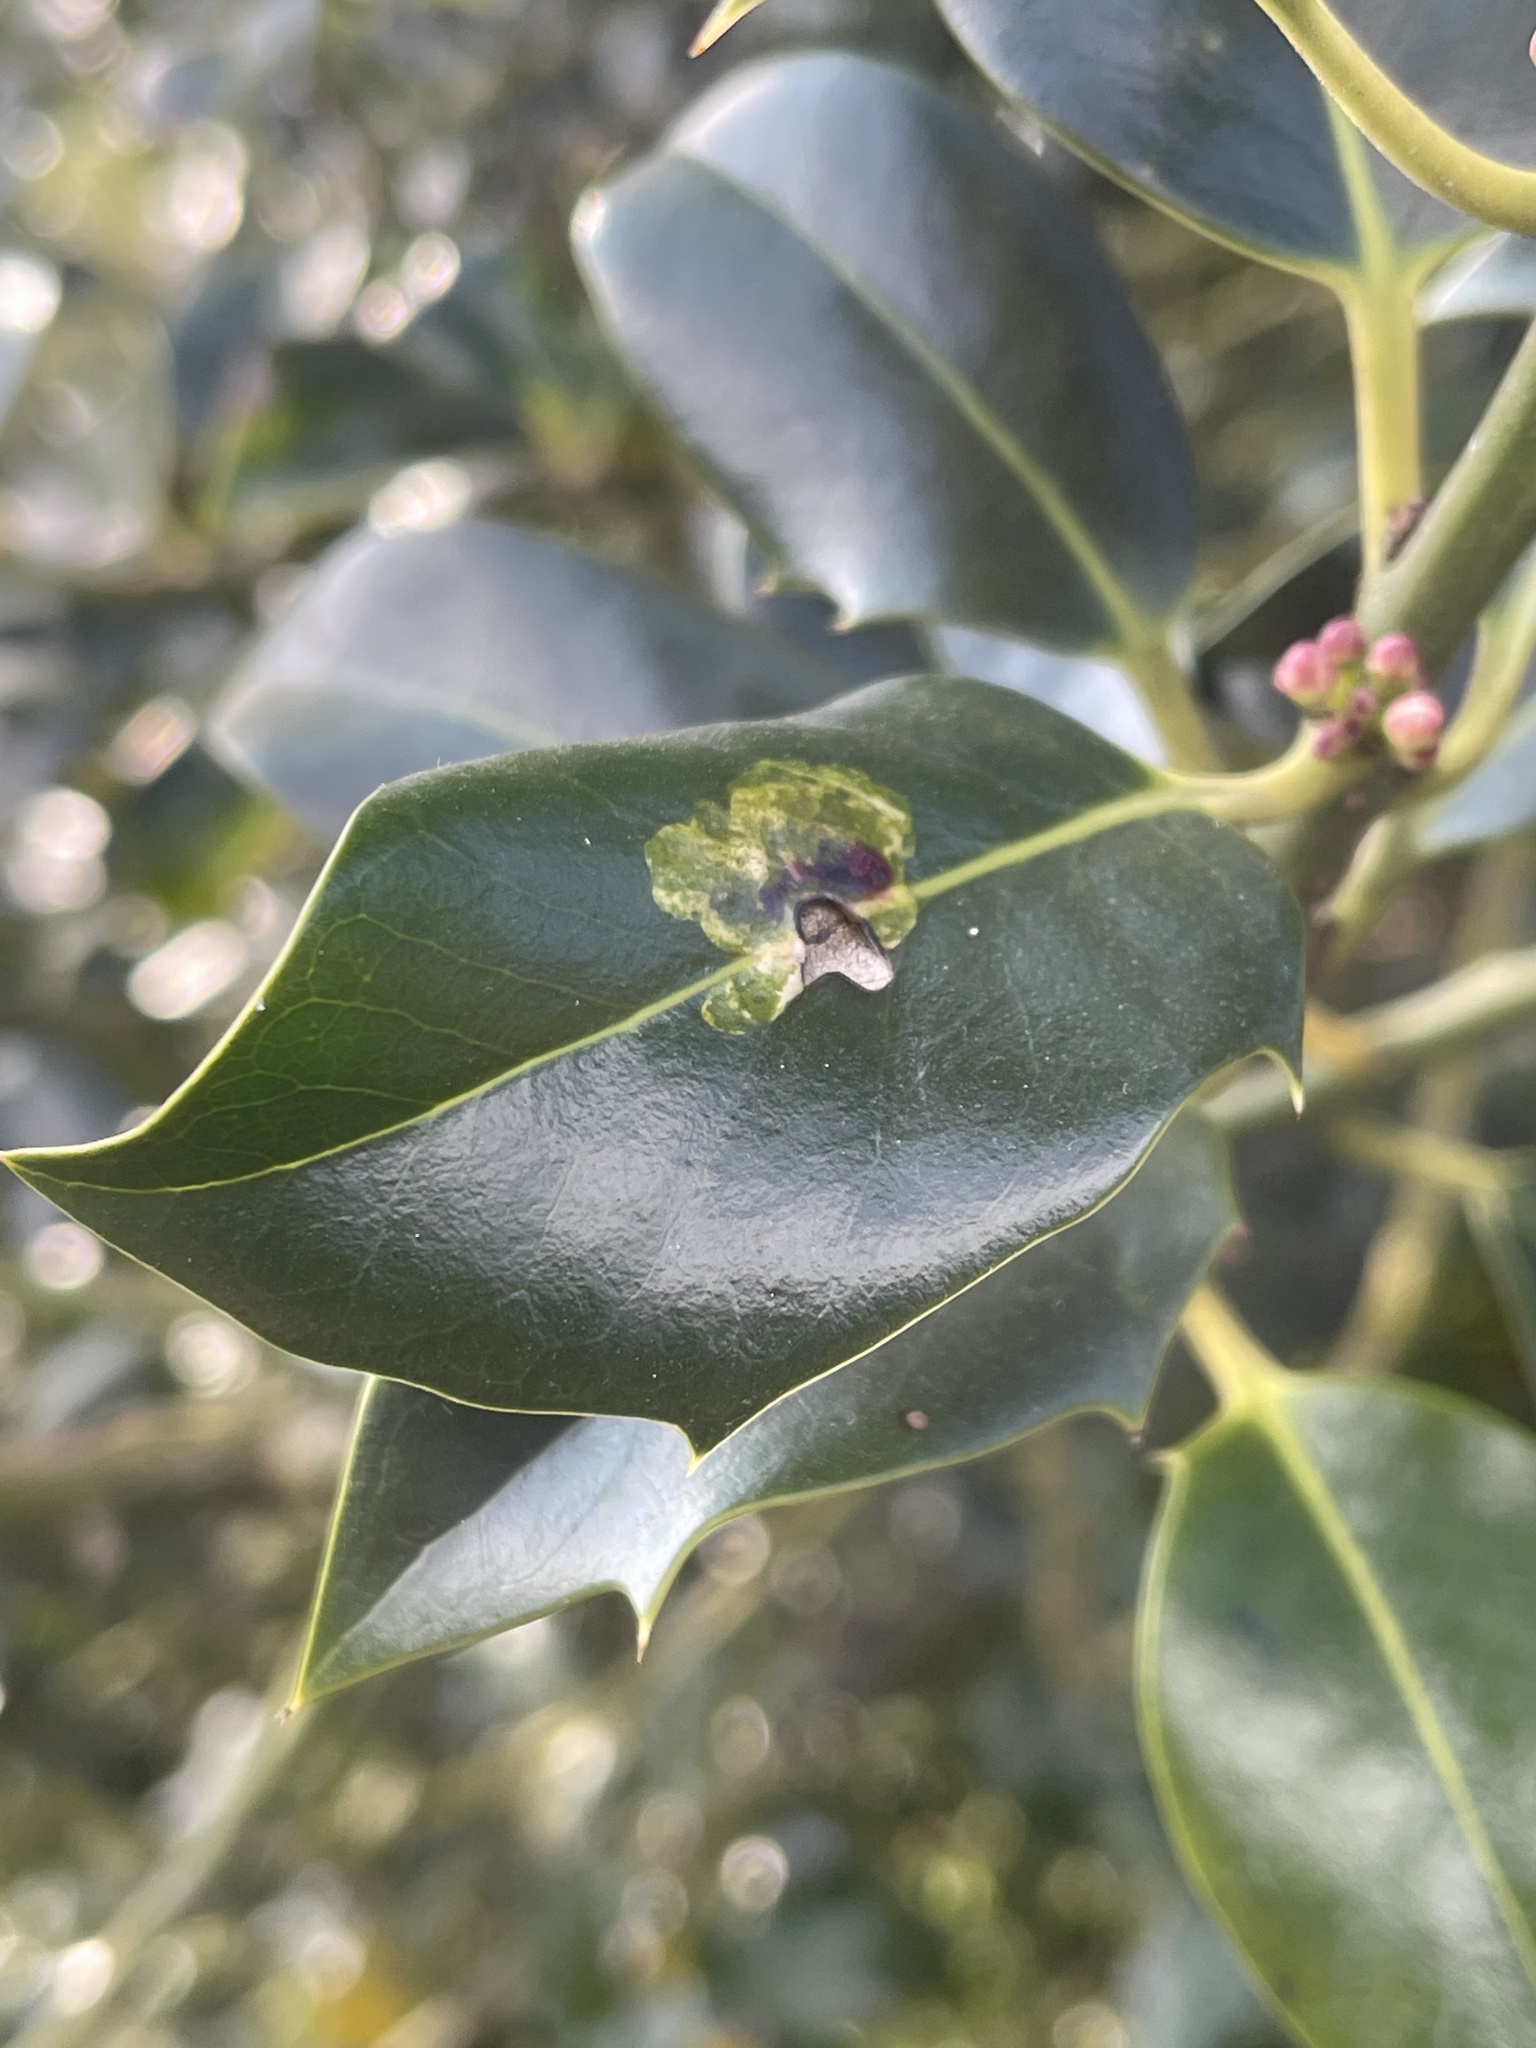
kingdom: Animalia
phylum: Arthropoda
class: Insecta
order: Diptera
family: Agromyzidae
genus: Phytomyza
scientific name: Phytomyza ilicis
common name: Holly leafminer
